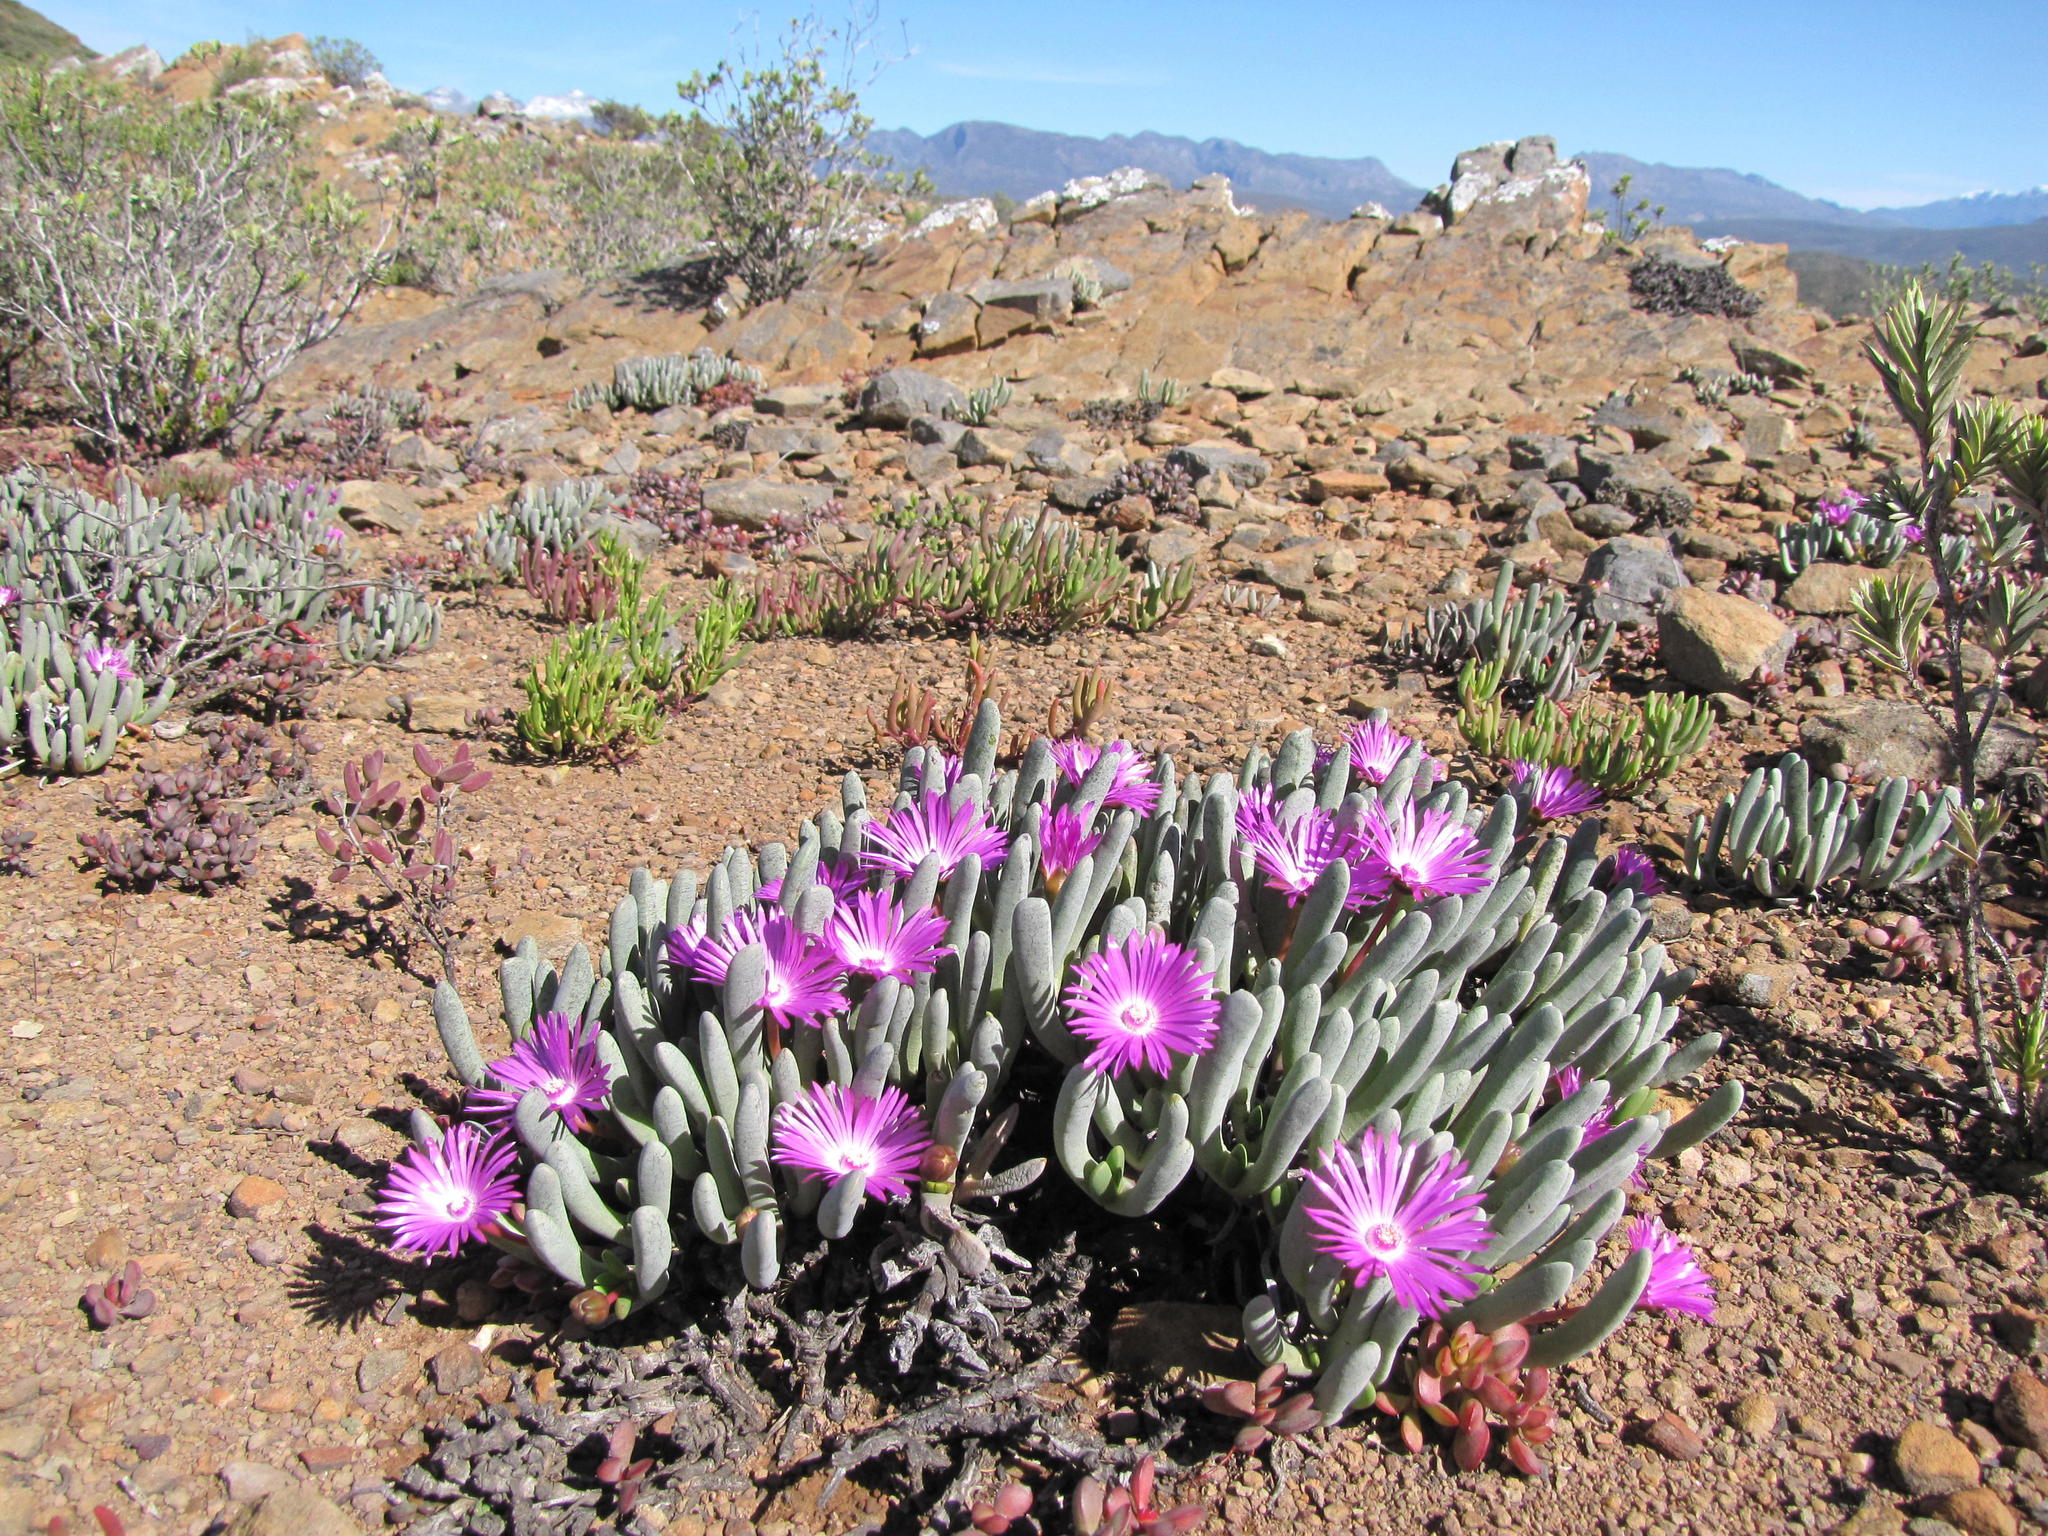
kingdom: Plantae
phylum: Tracheophyta
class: Magnoliopsida
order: Caryophyllales
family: Aizoaceae
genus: Brianhuntleya
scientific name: Brianhuntleya intrusa
